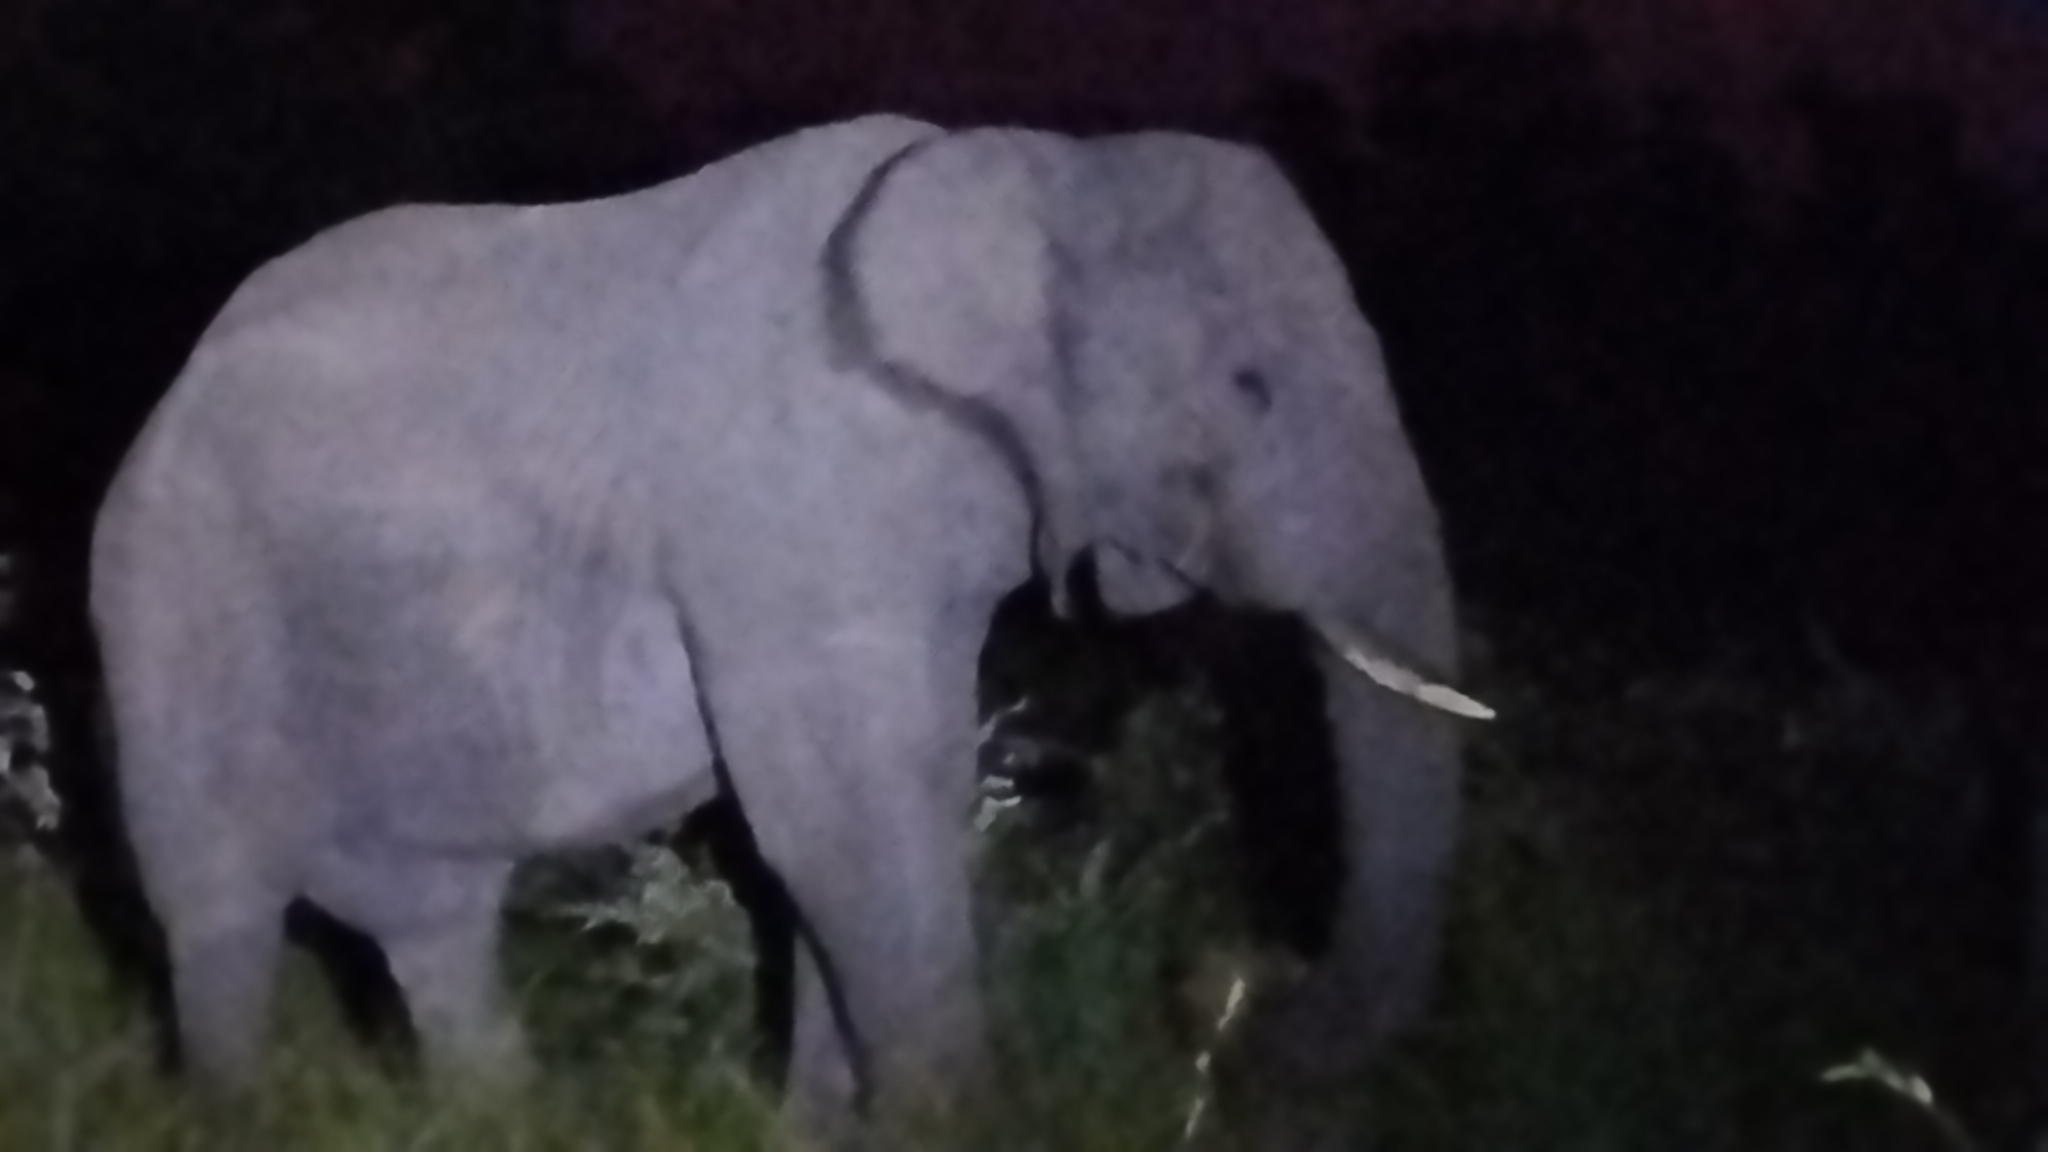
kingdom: Animalia
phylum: Chordata
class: Mammalia
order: Proboscidea
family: Elephantidae
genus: Loxodonta
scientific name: Loxodonta africana
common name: African elephant
